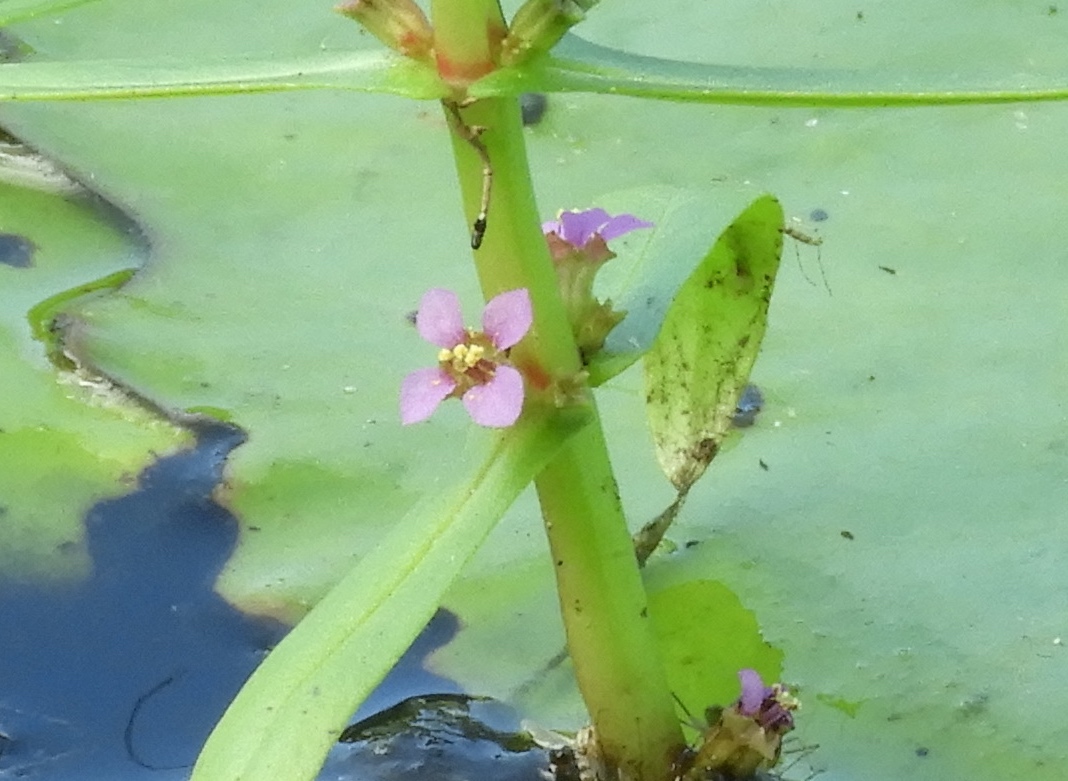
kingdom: Plantae
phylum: Tracheophyta
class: Magnoliopsida
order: Myrtales
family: Lythraceae
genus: Ammannia
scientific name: Ammannia coccinea
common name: Valley redstem
